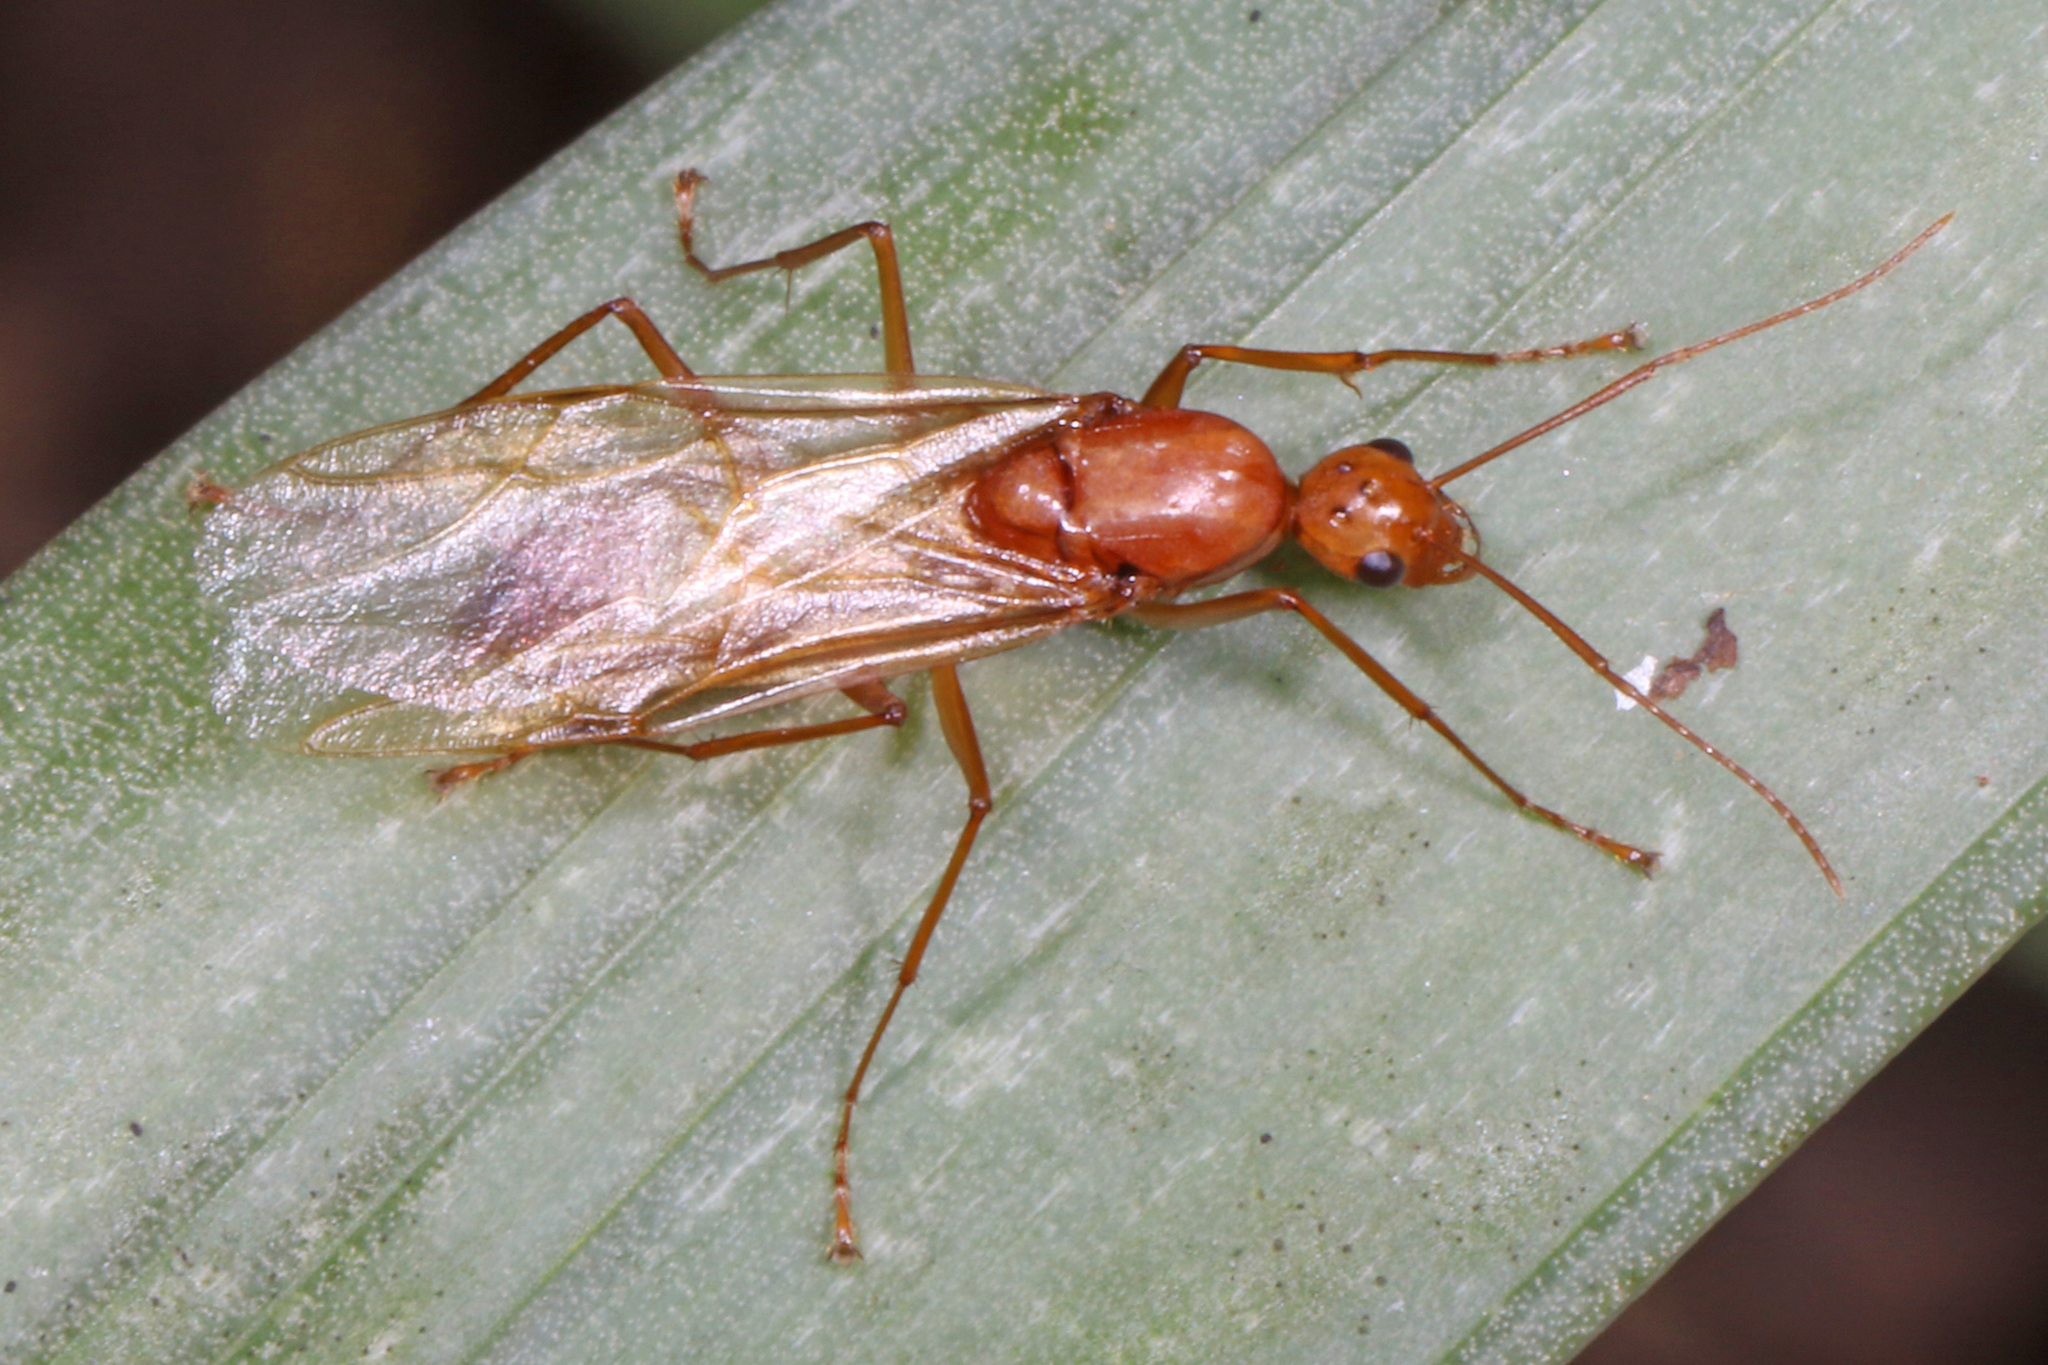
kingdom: Animalia
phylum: Arthropoda
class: Insecta
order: Hymenoptera
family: Formicidae
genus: Camponotus
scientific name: Camponotus castaneus
